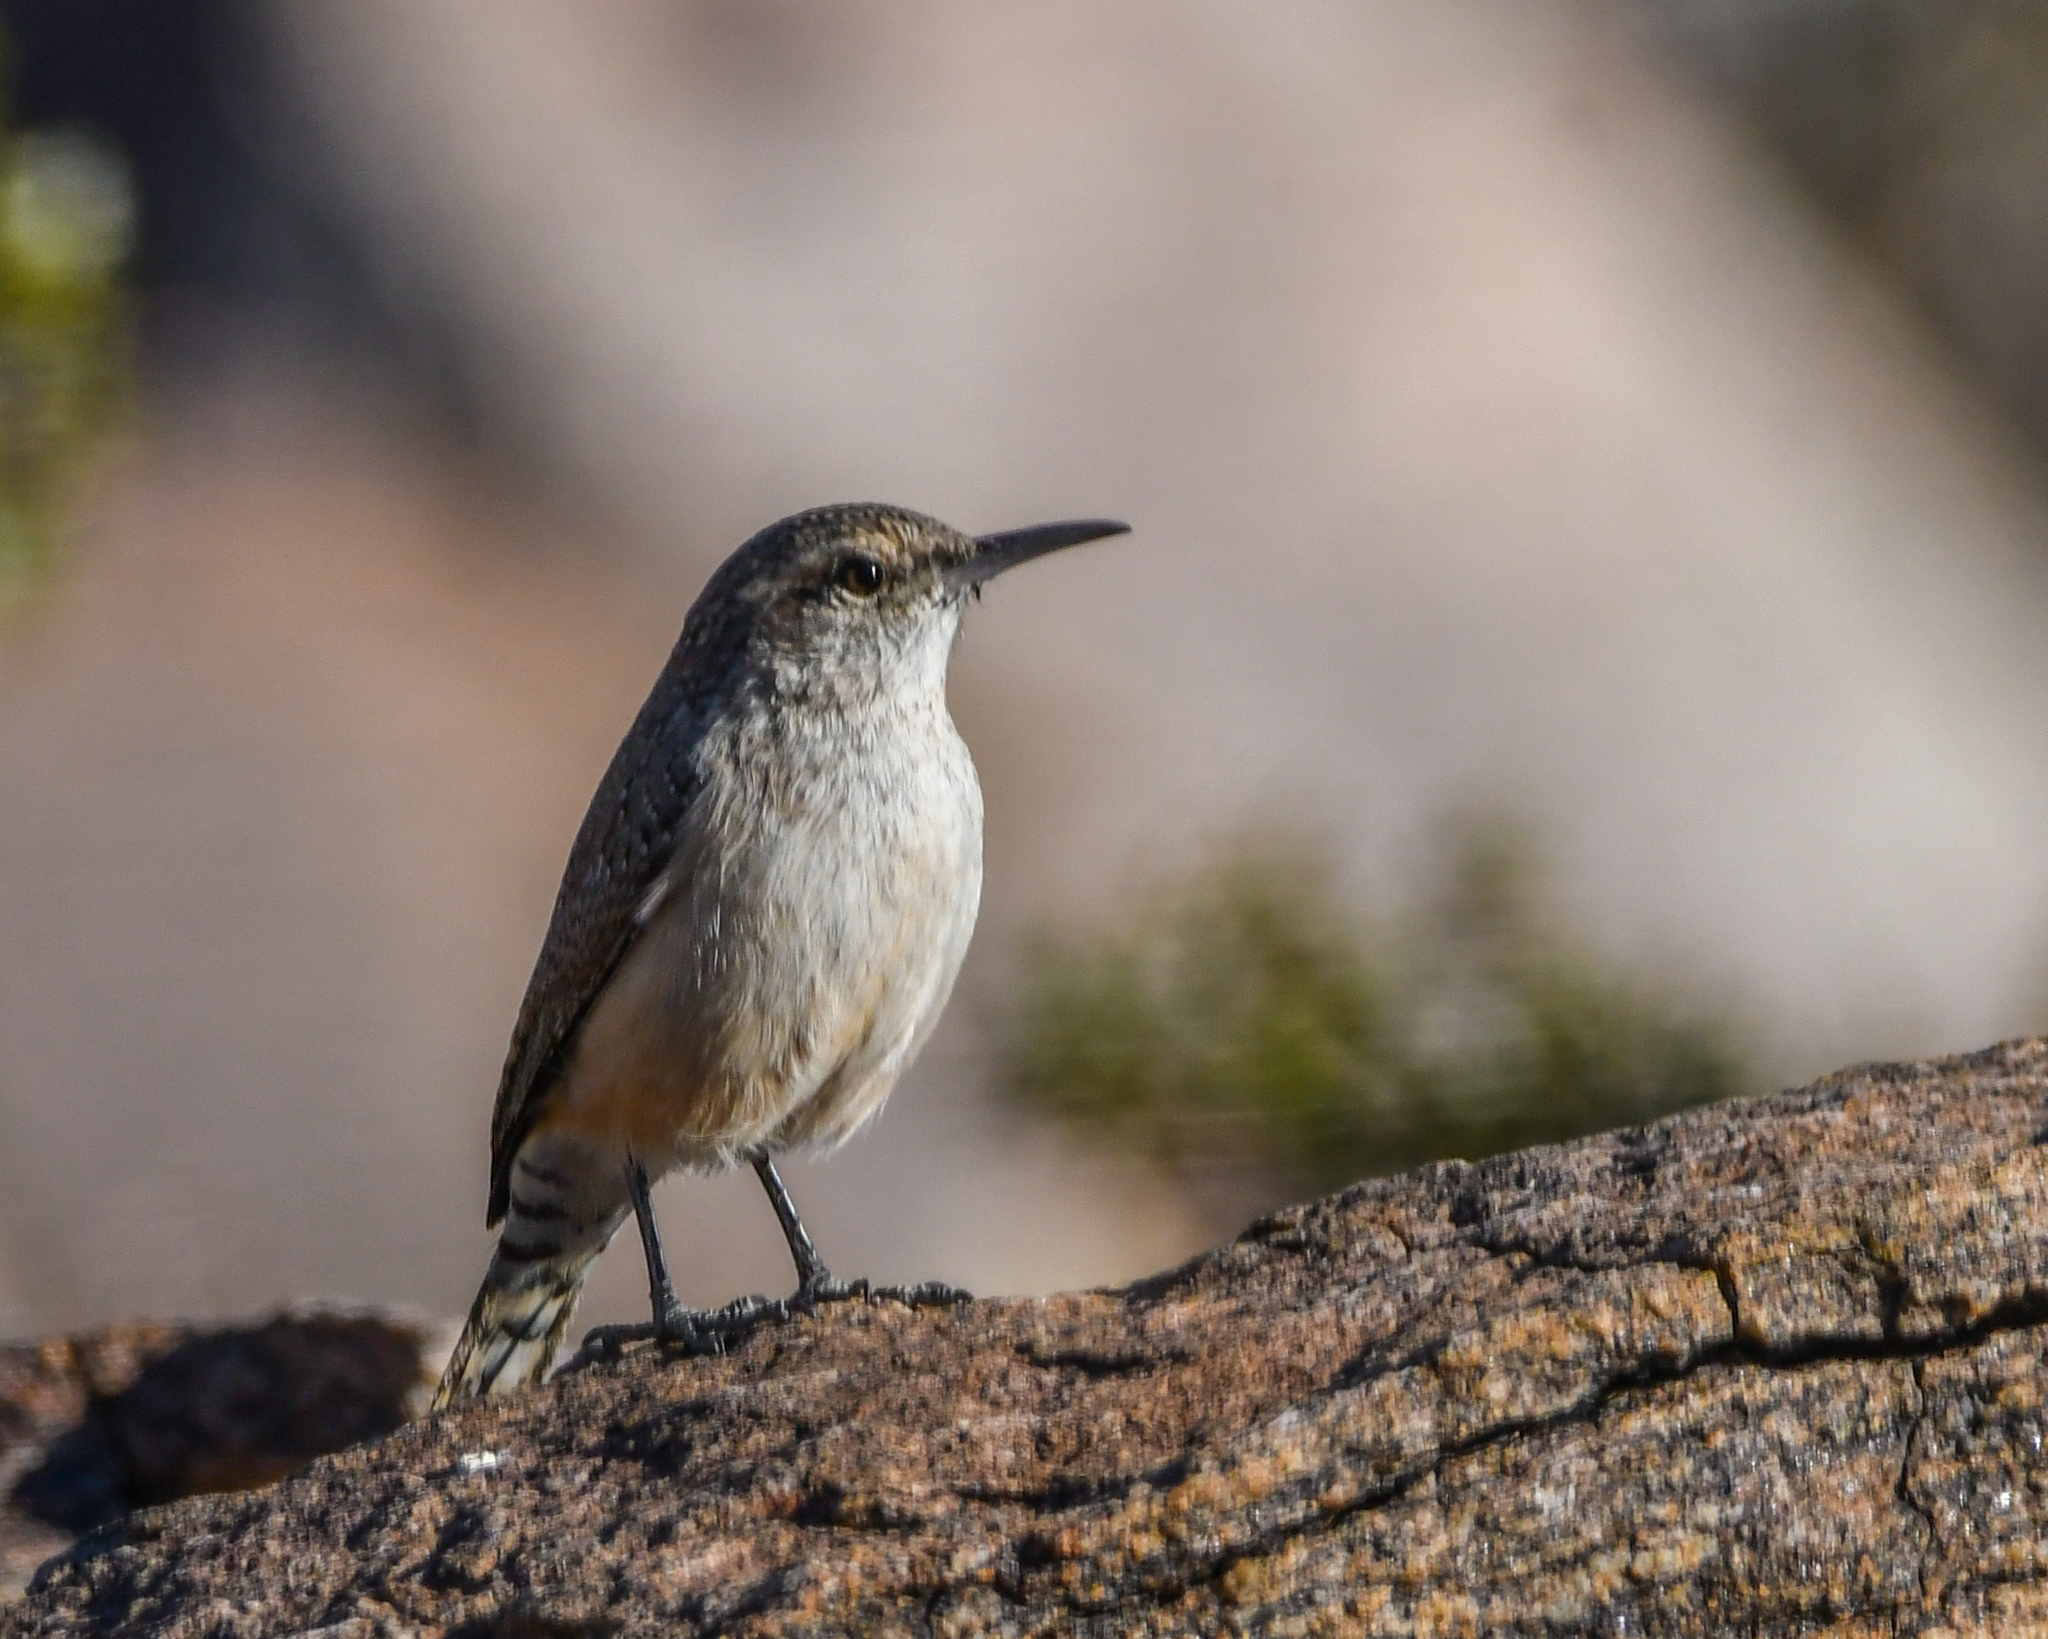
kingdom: Animalia
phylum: Chordata
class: Aves
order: Passeriformes
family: Troglodytidae
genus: Salpinctes
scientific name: Salpinctes obsoletus
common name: Rock wren
